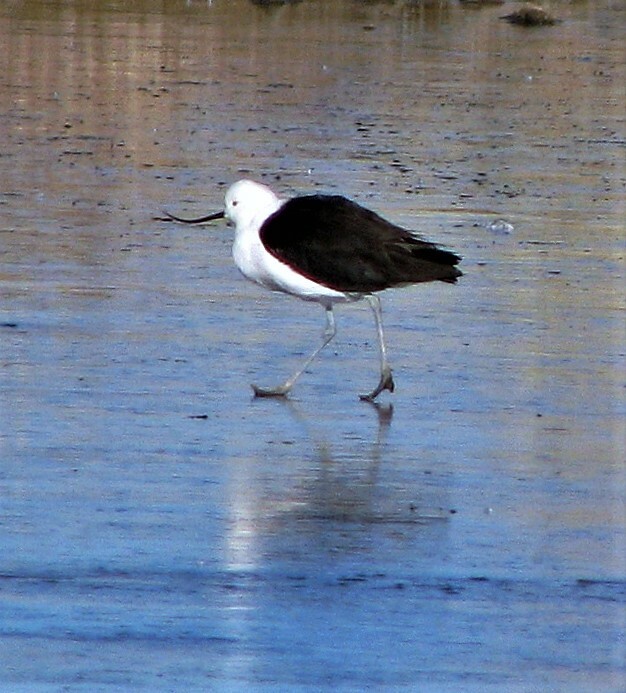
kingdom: Animalia
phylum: Chordata
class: Aves
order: Charadriiformes
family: Recurvirostridae
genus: Recurvirostra
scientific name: Recurvirostra andina
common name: Andean avocet
